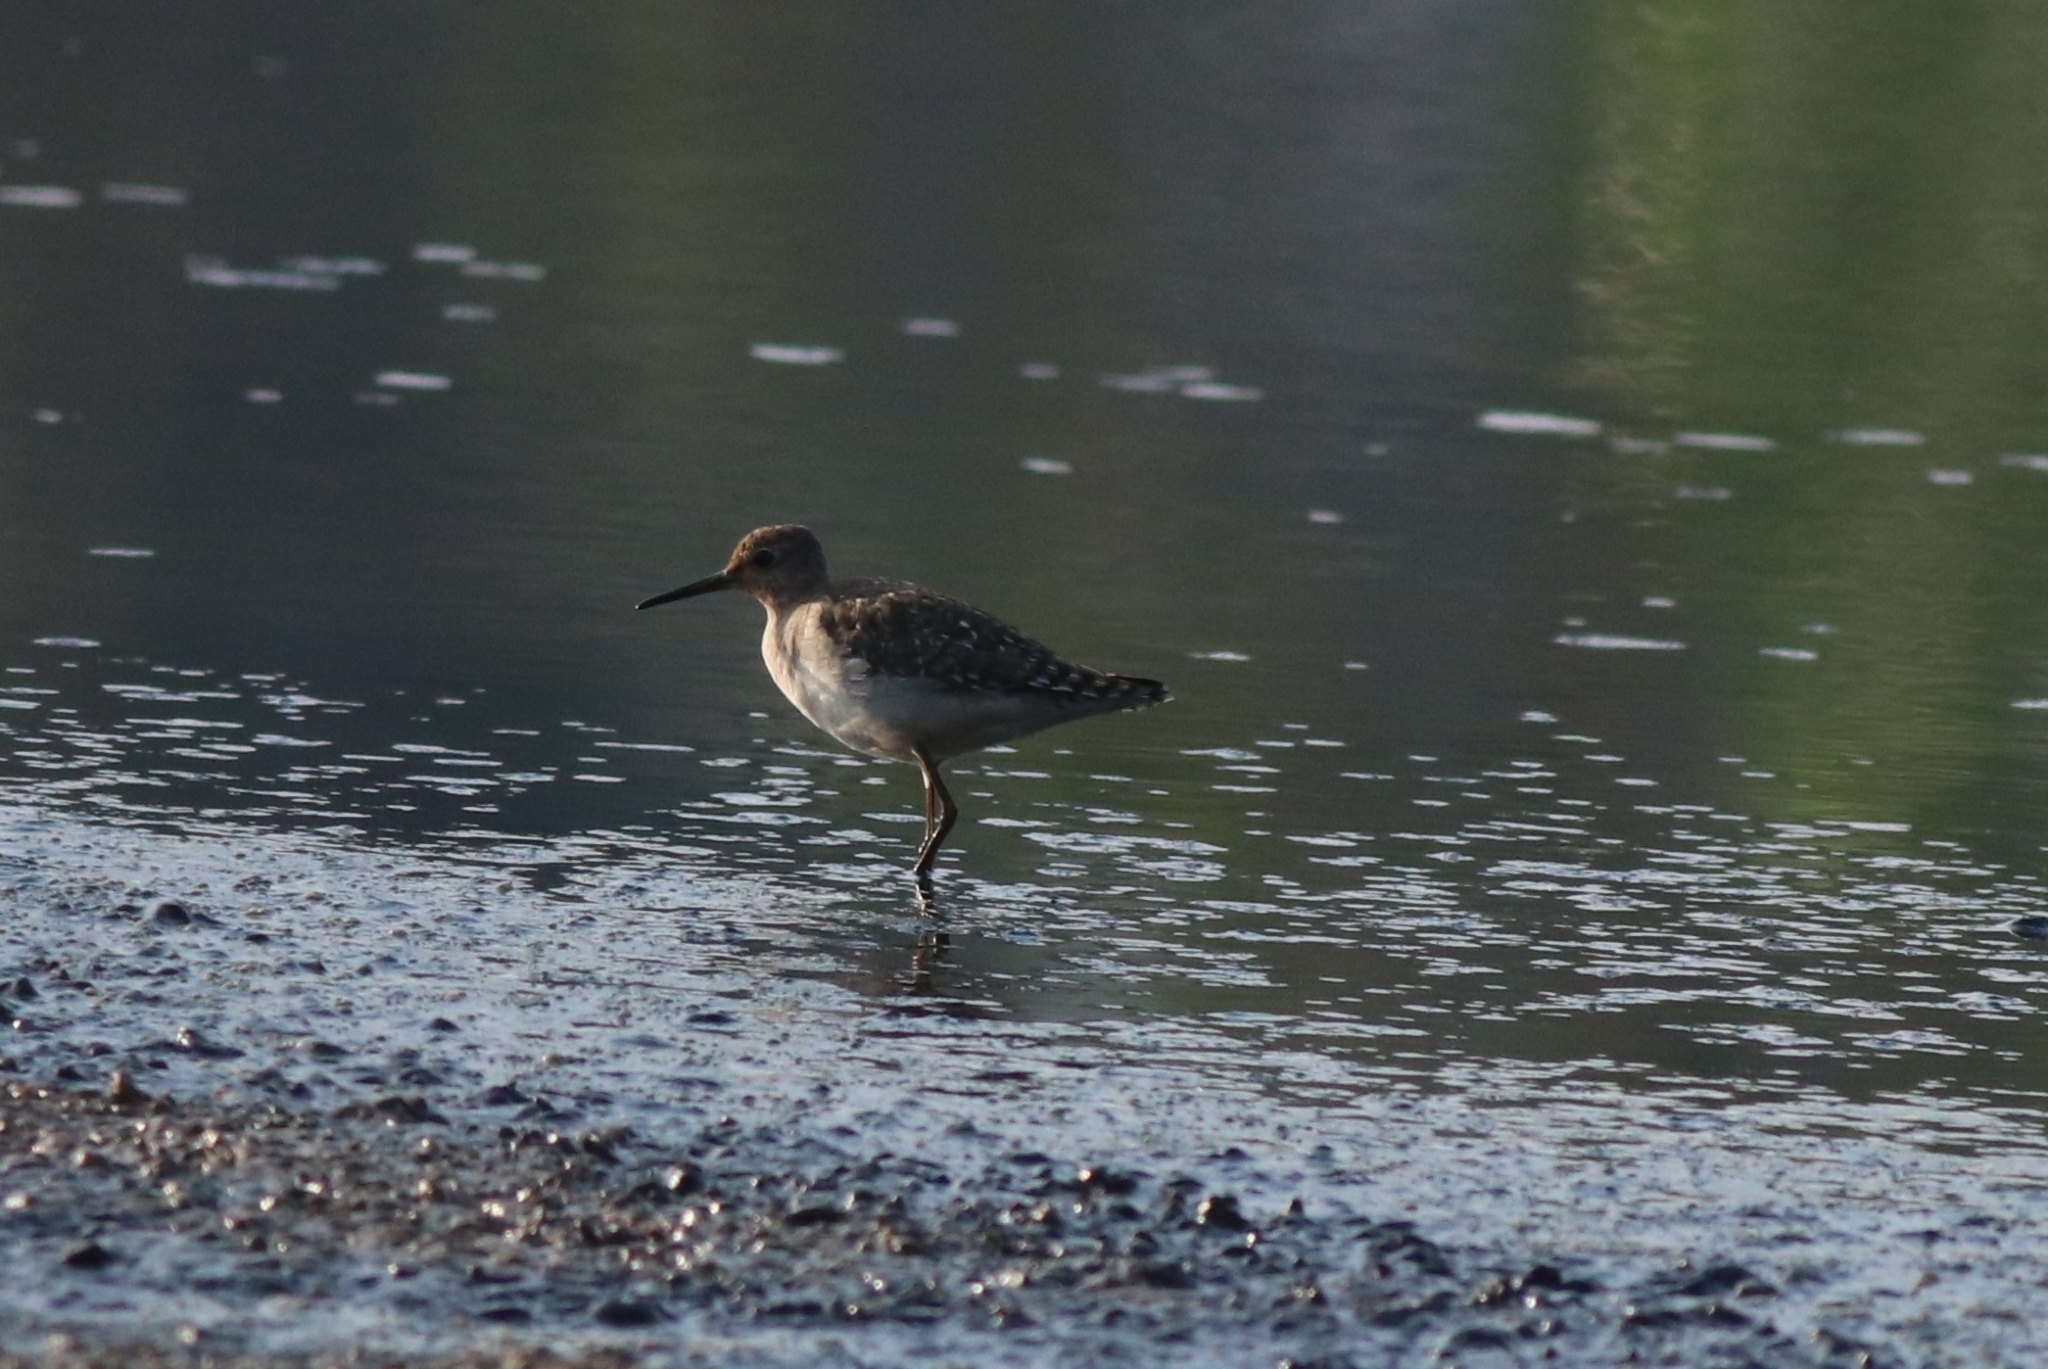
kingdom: Animalia
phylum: Chordata
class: Aves
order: Charadriiformes
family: Scolopacidae
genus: Tringa
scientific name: Tringa glareola
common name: Wood sandpiper
